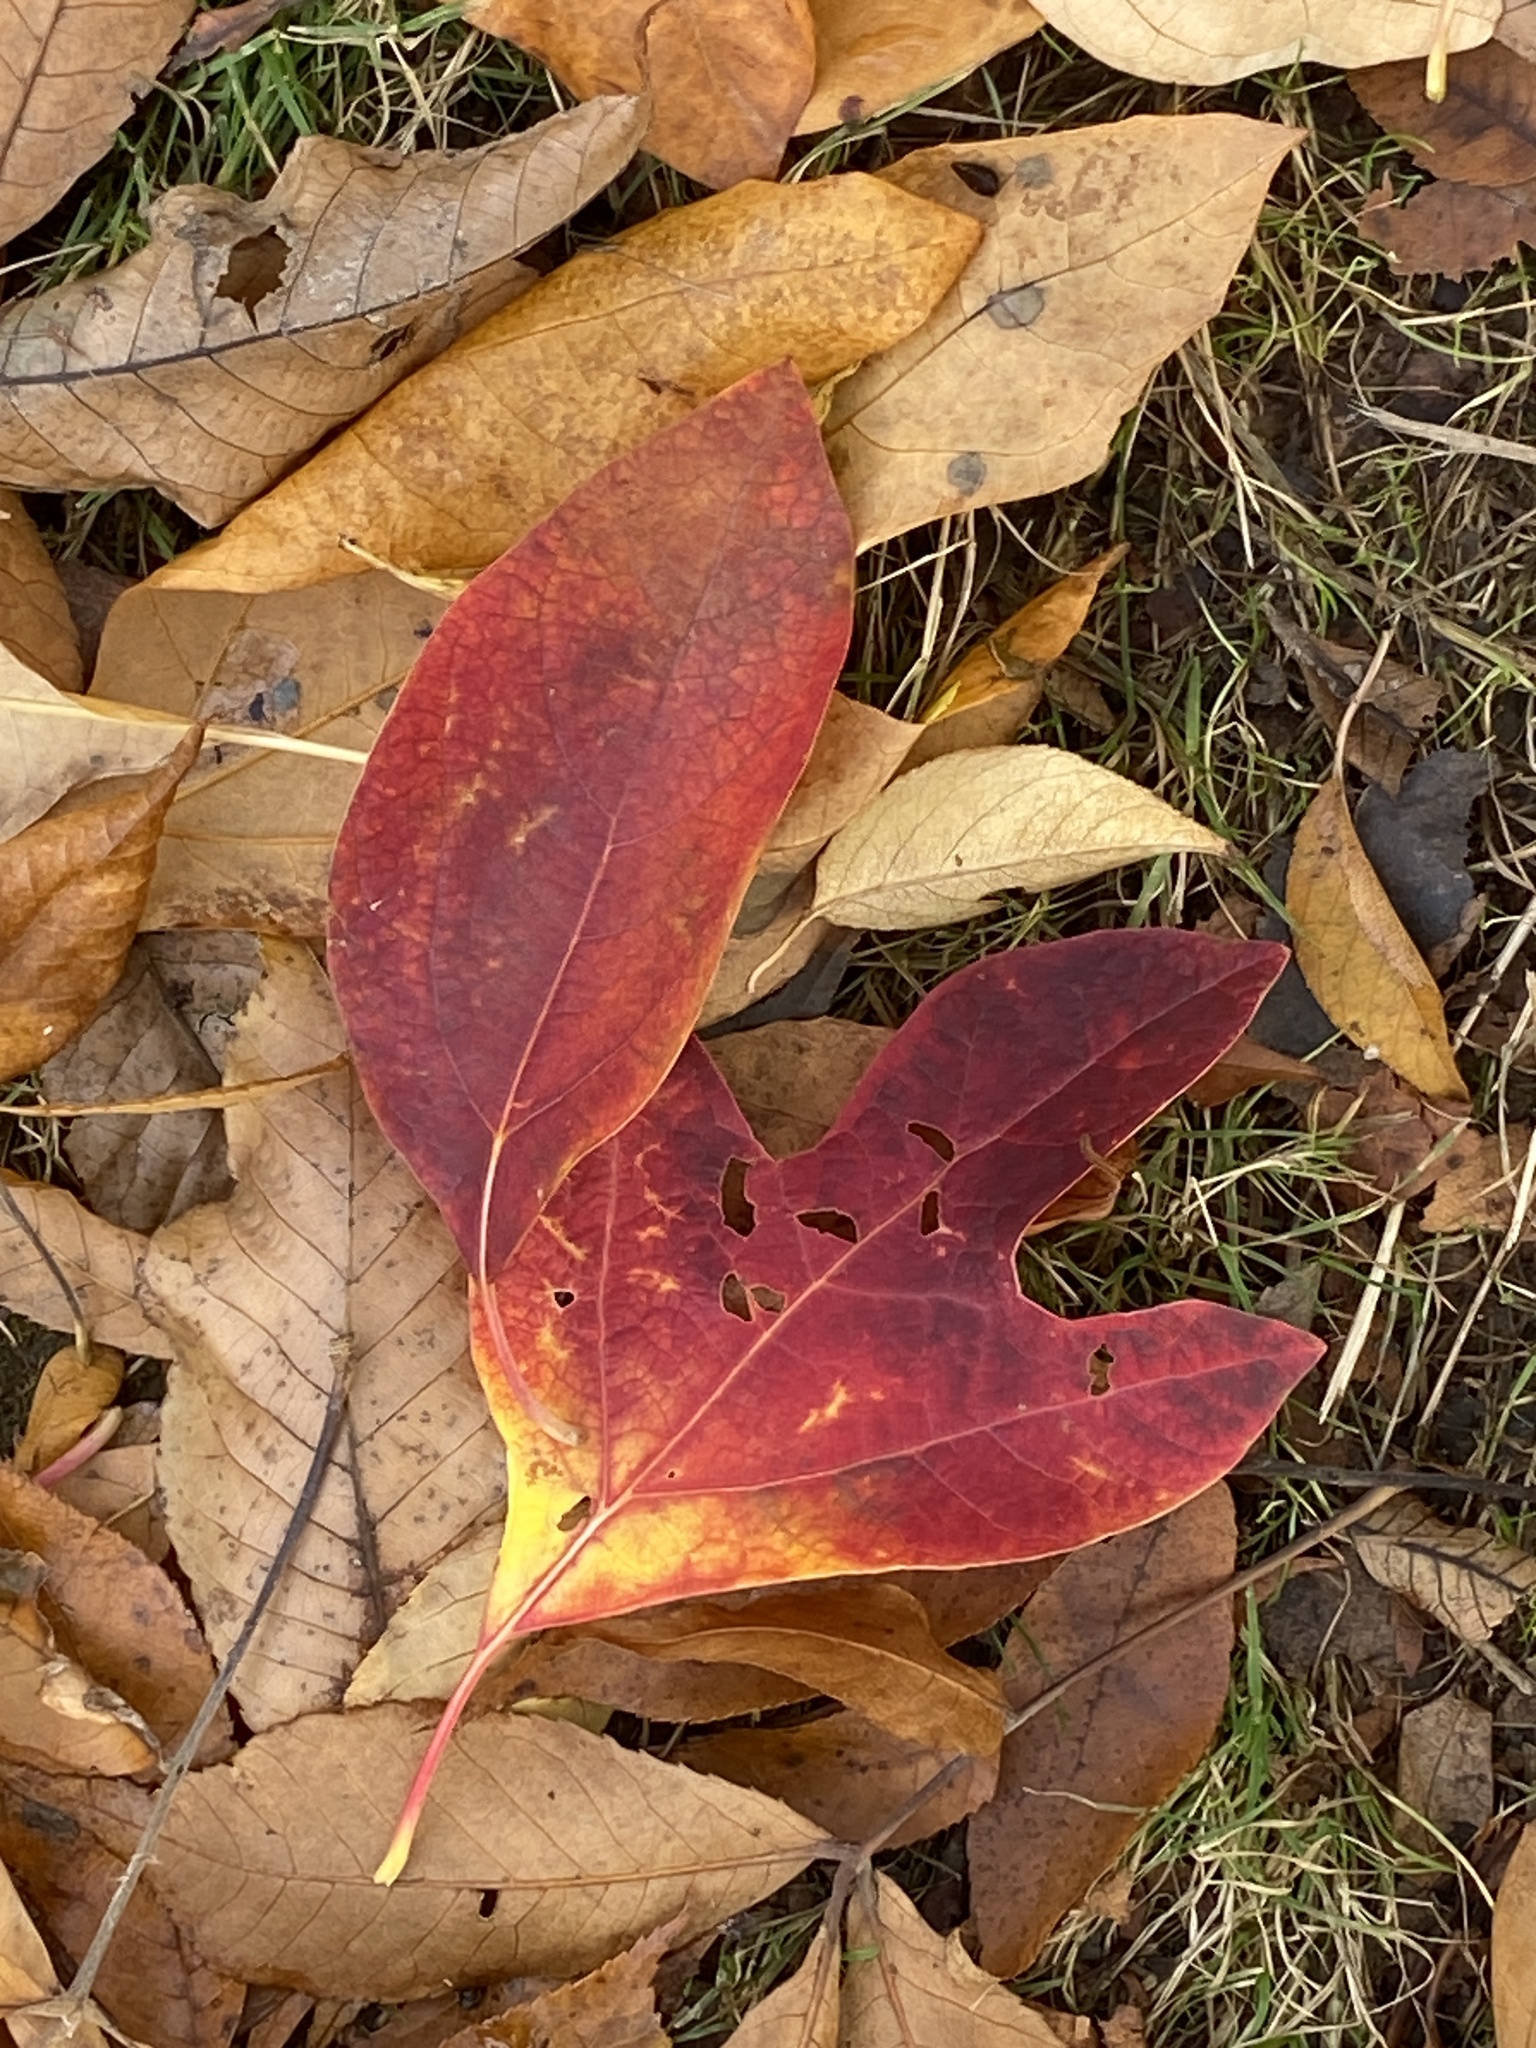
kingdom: Plantae
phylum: Tracheophyta
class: Magnoliopsida
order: Laurales
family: Lauraceae
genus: Sassafras
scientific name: Sassafras albidum
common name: Sassafras
